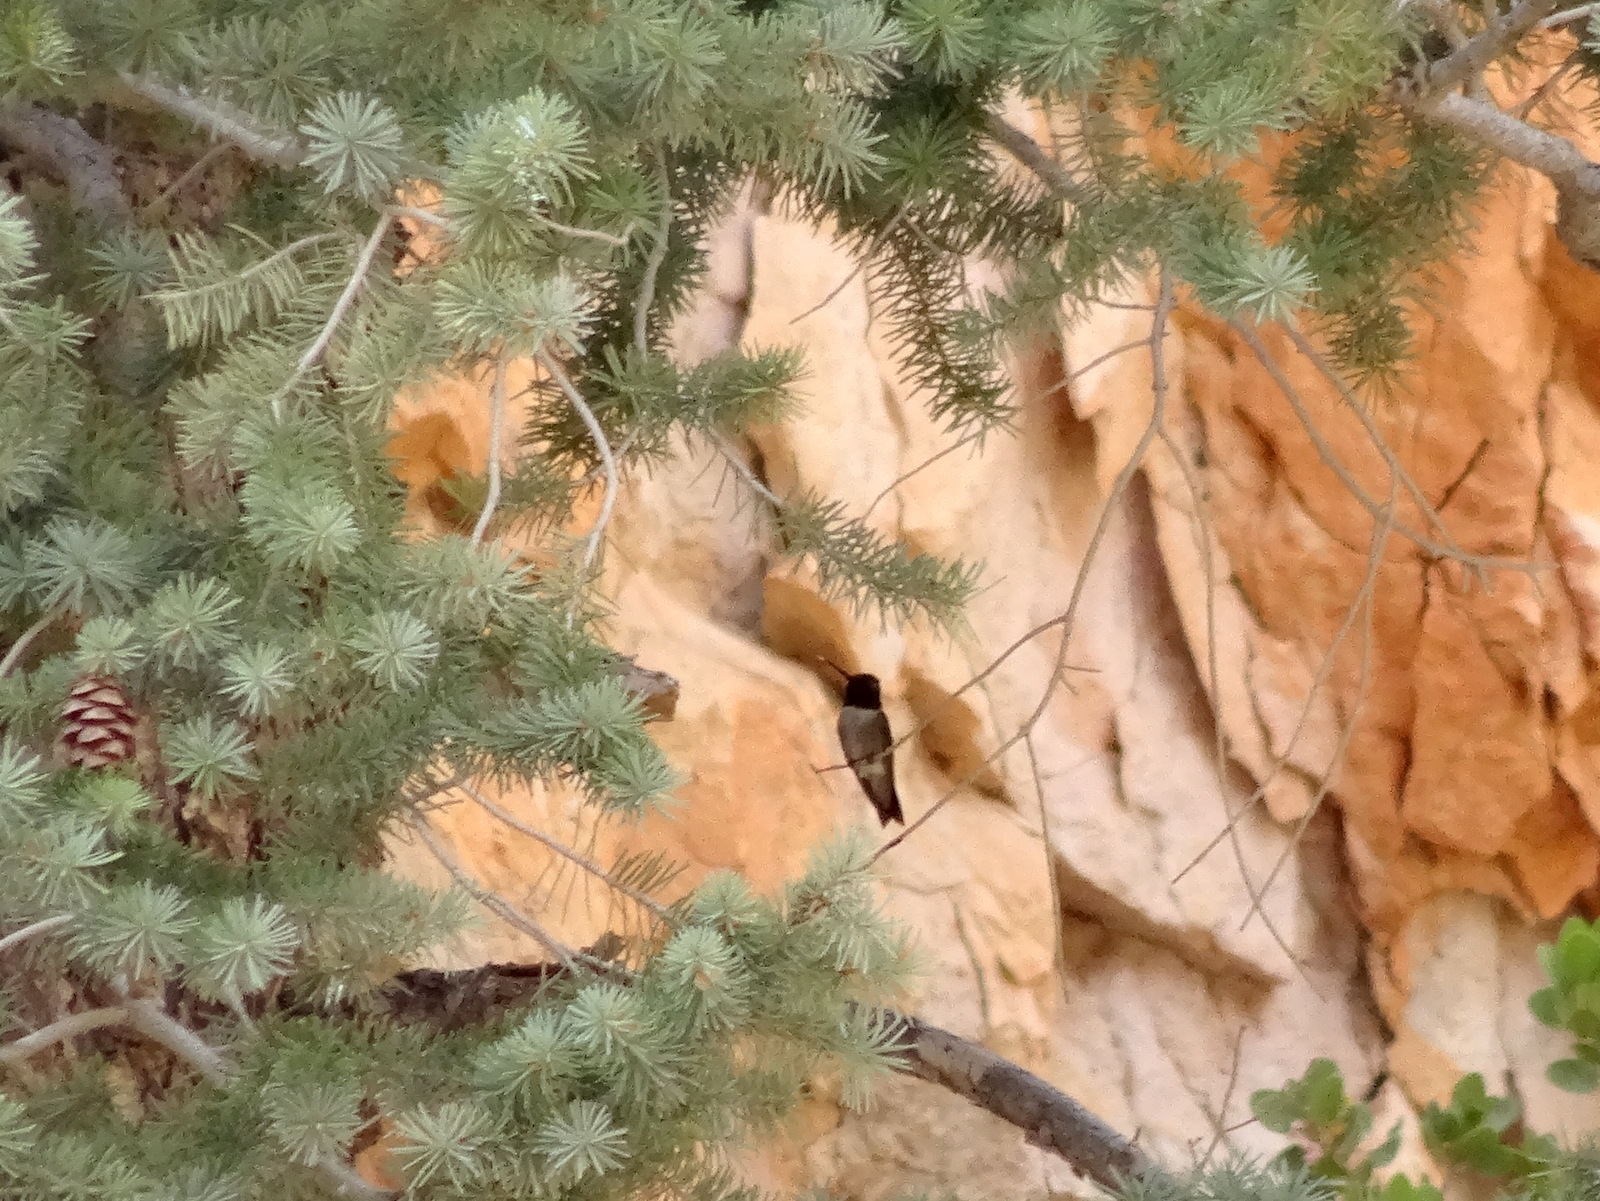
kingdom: Animalia
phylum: Chordata
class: Aves
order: Apodiformes
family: Trochilidae
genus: Archilochus
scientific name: Archilochus alexandri
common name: Black-chinned hummingbird
